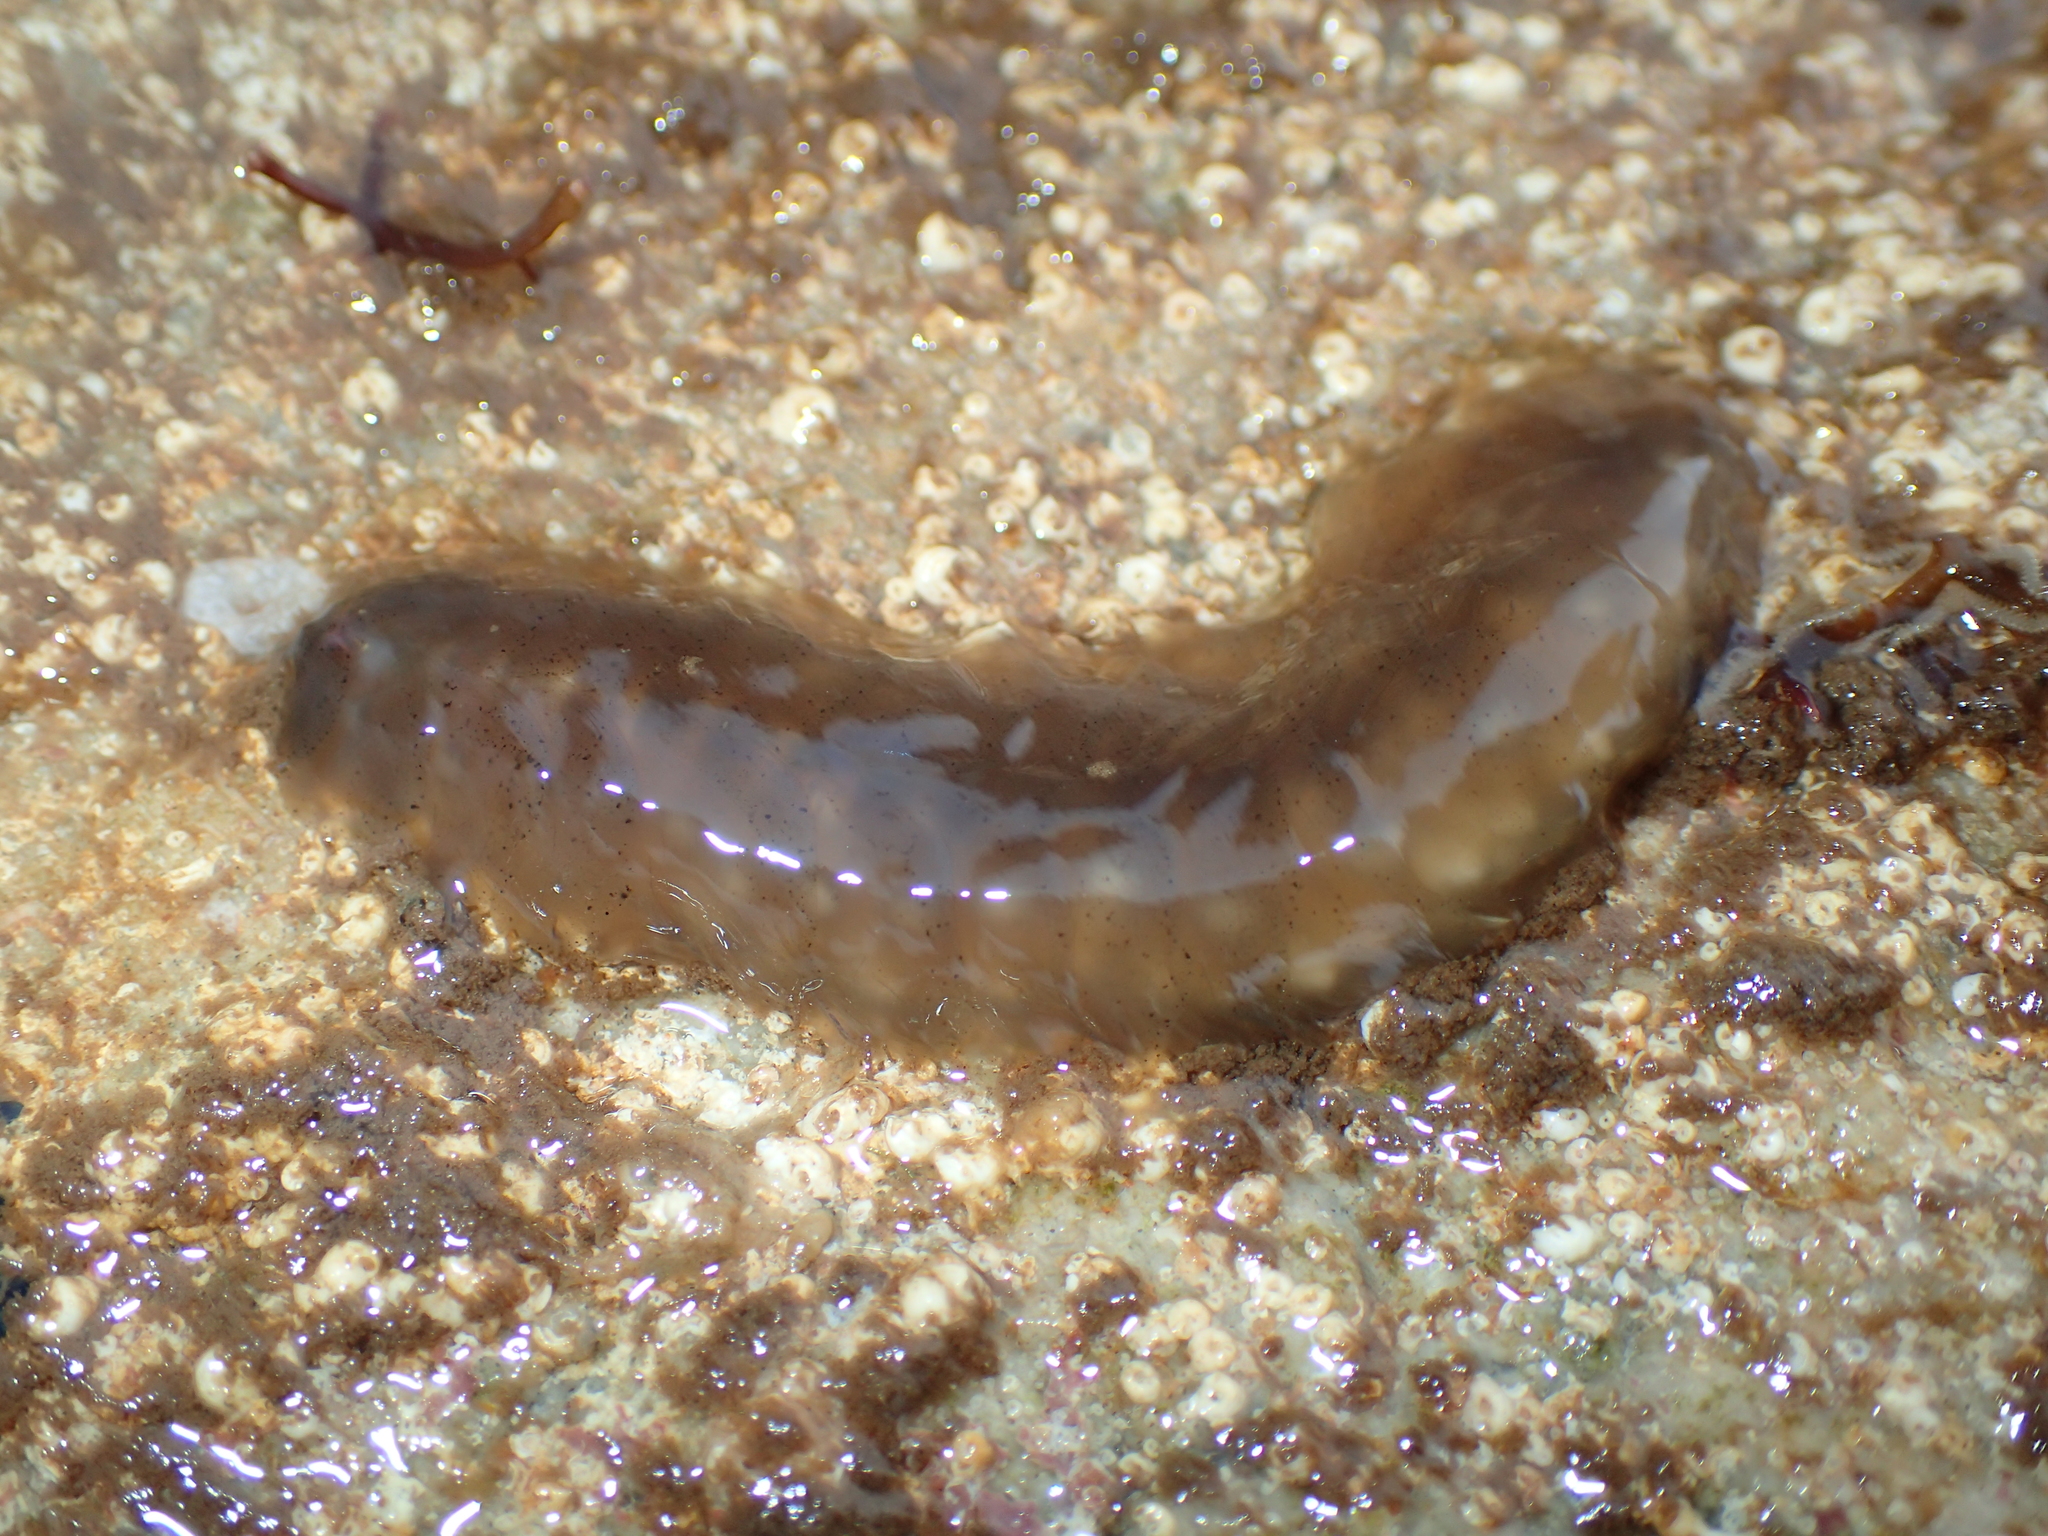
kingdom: Animalia
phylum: Annelida
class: Polychaeta
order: Phyllodocida
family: Polynoidae
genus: Alentia
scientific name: Alentia gelatinosa
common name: Gelatinous scale worm
